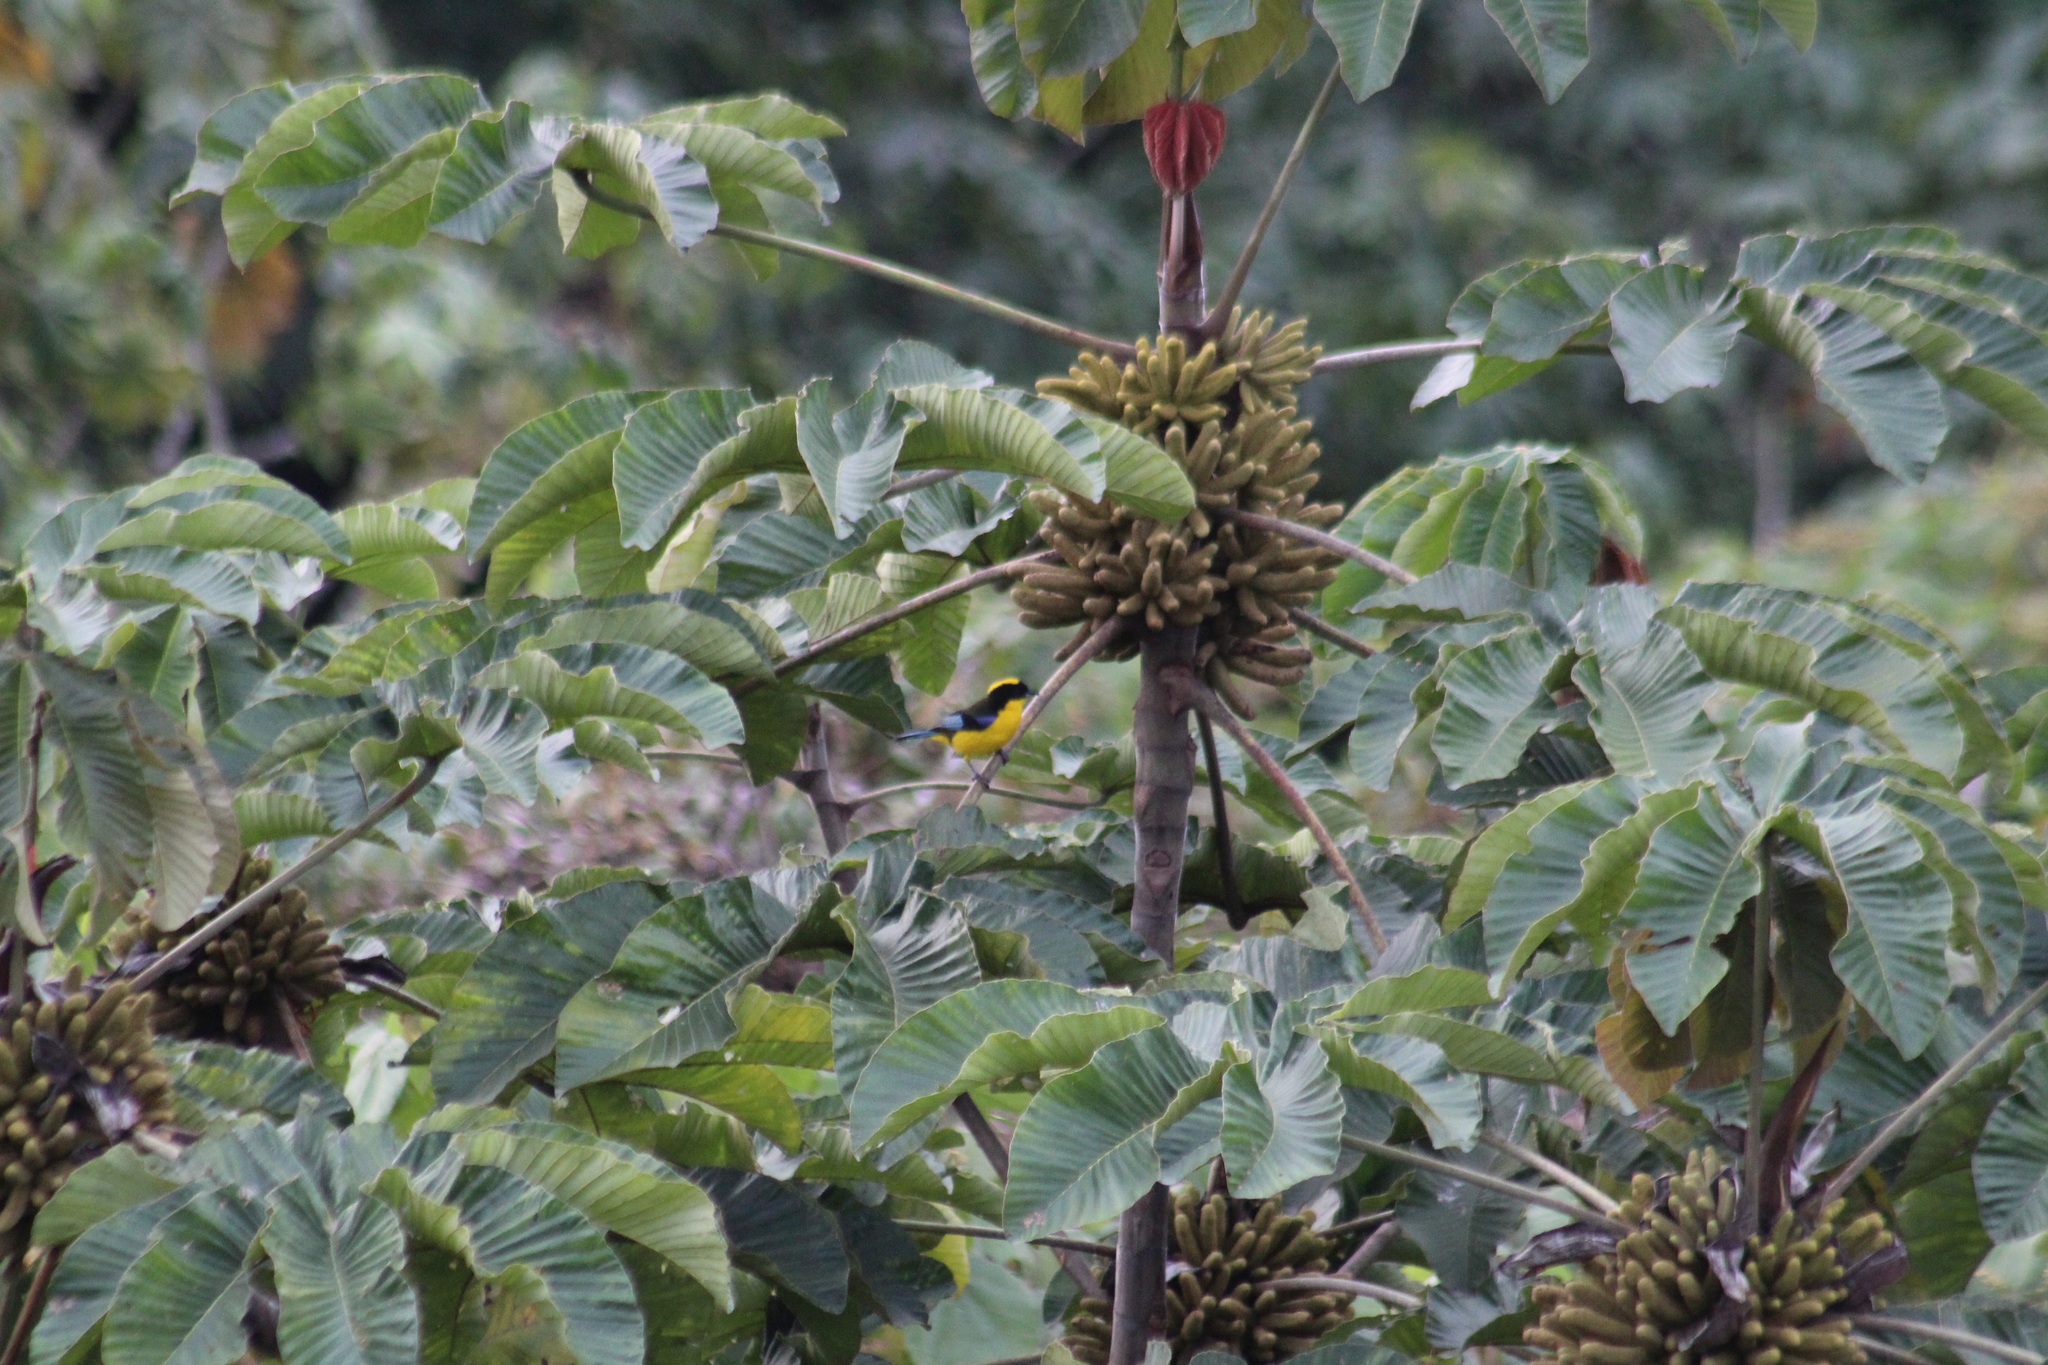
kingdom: Animalia
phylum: Chordata
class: Aves
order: Passeriformes
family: Thraupidae
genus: Anisognathus
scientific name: Anisognathus somptuosus
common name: Blue-winged mountain-tanager
